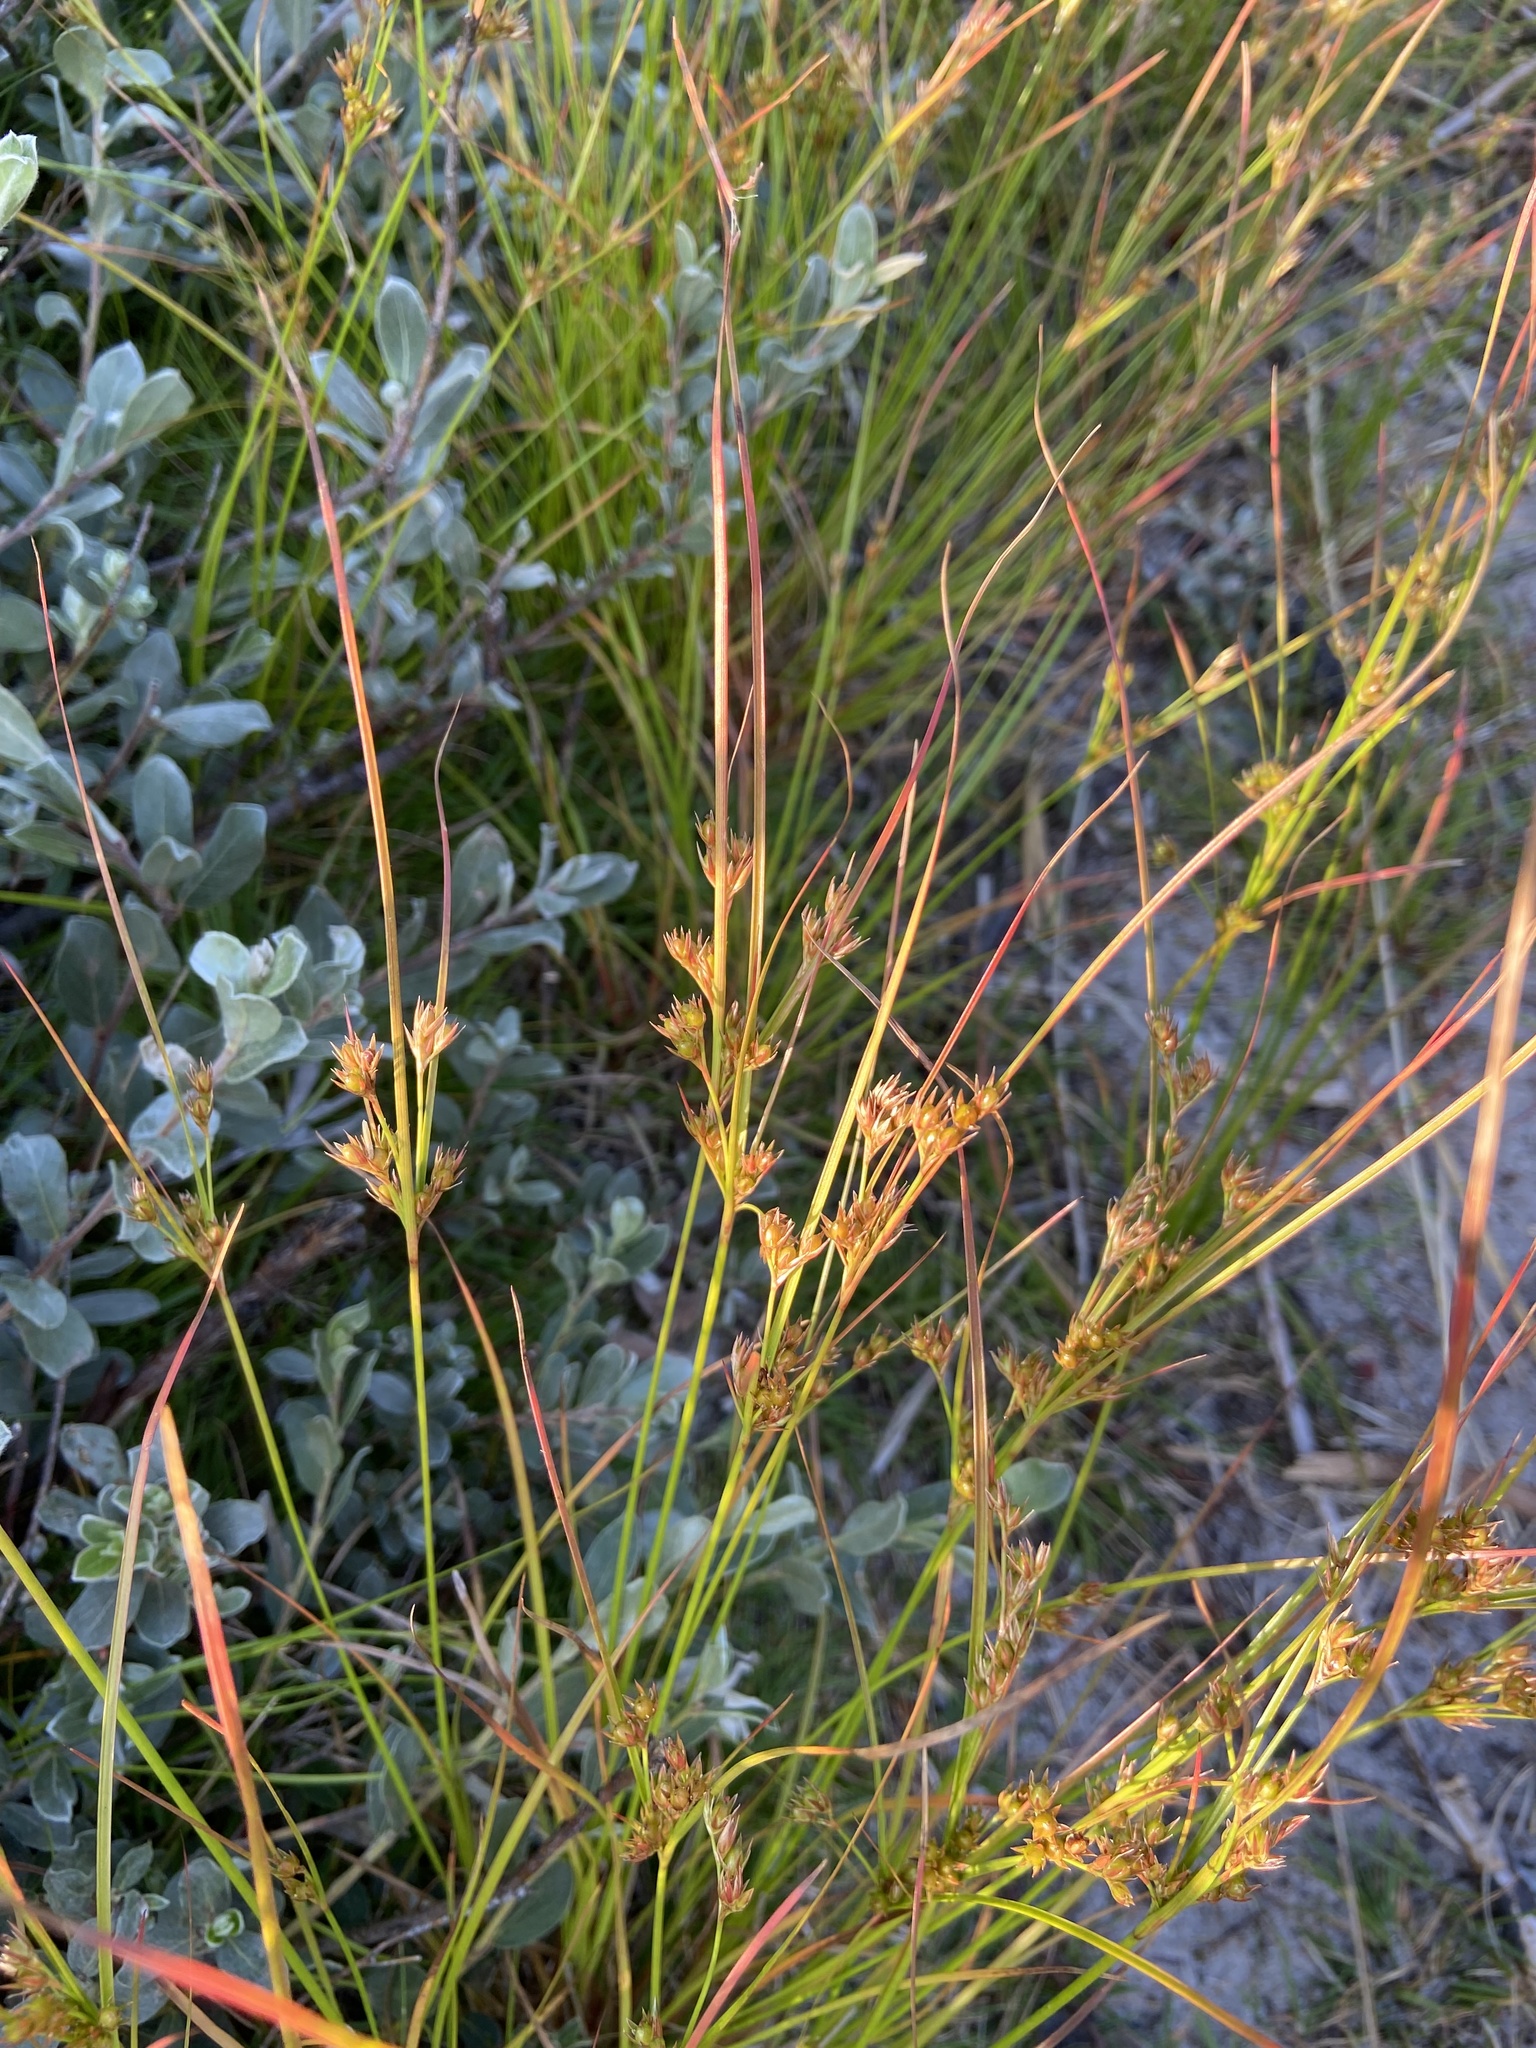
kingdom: Plantae
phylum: Tracheophyta
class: Liliopsida
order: Poales
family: Juncaceae
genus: Juncus
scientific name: Juncus tenuis
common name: Slender rush
